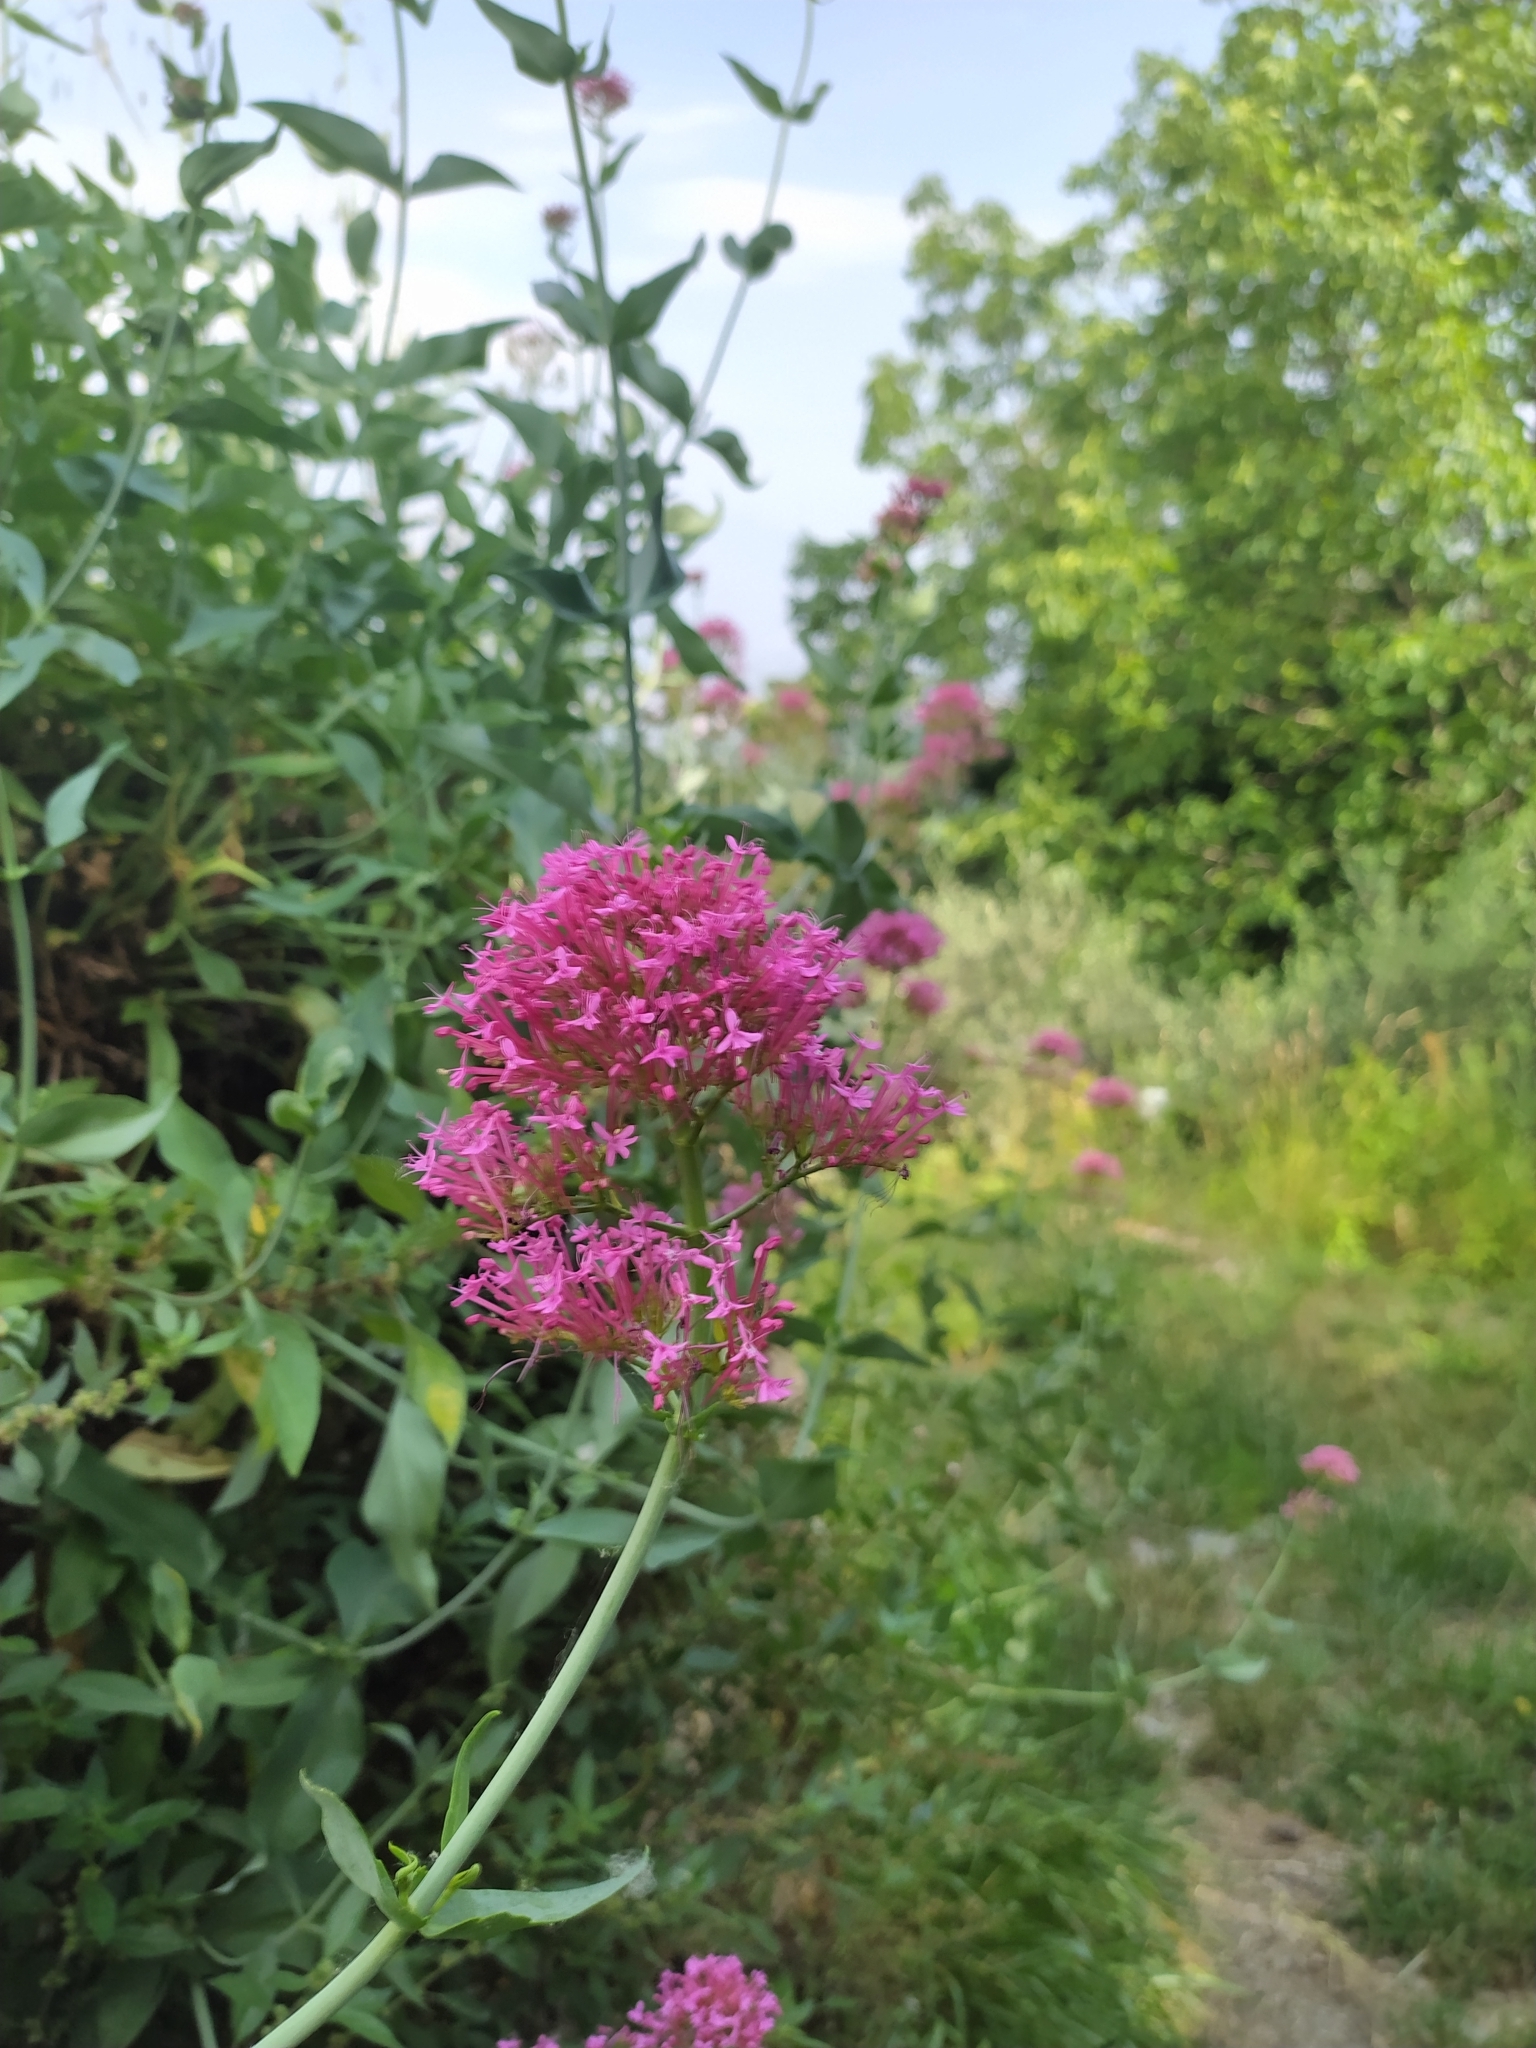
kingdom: Plantae
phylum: Tracheophyta
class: Magnoliopsida
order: Dipsacales
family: Caprifoliaceae
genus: Centranthus
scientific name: Centranthus ruber
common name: Red valerian
